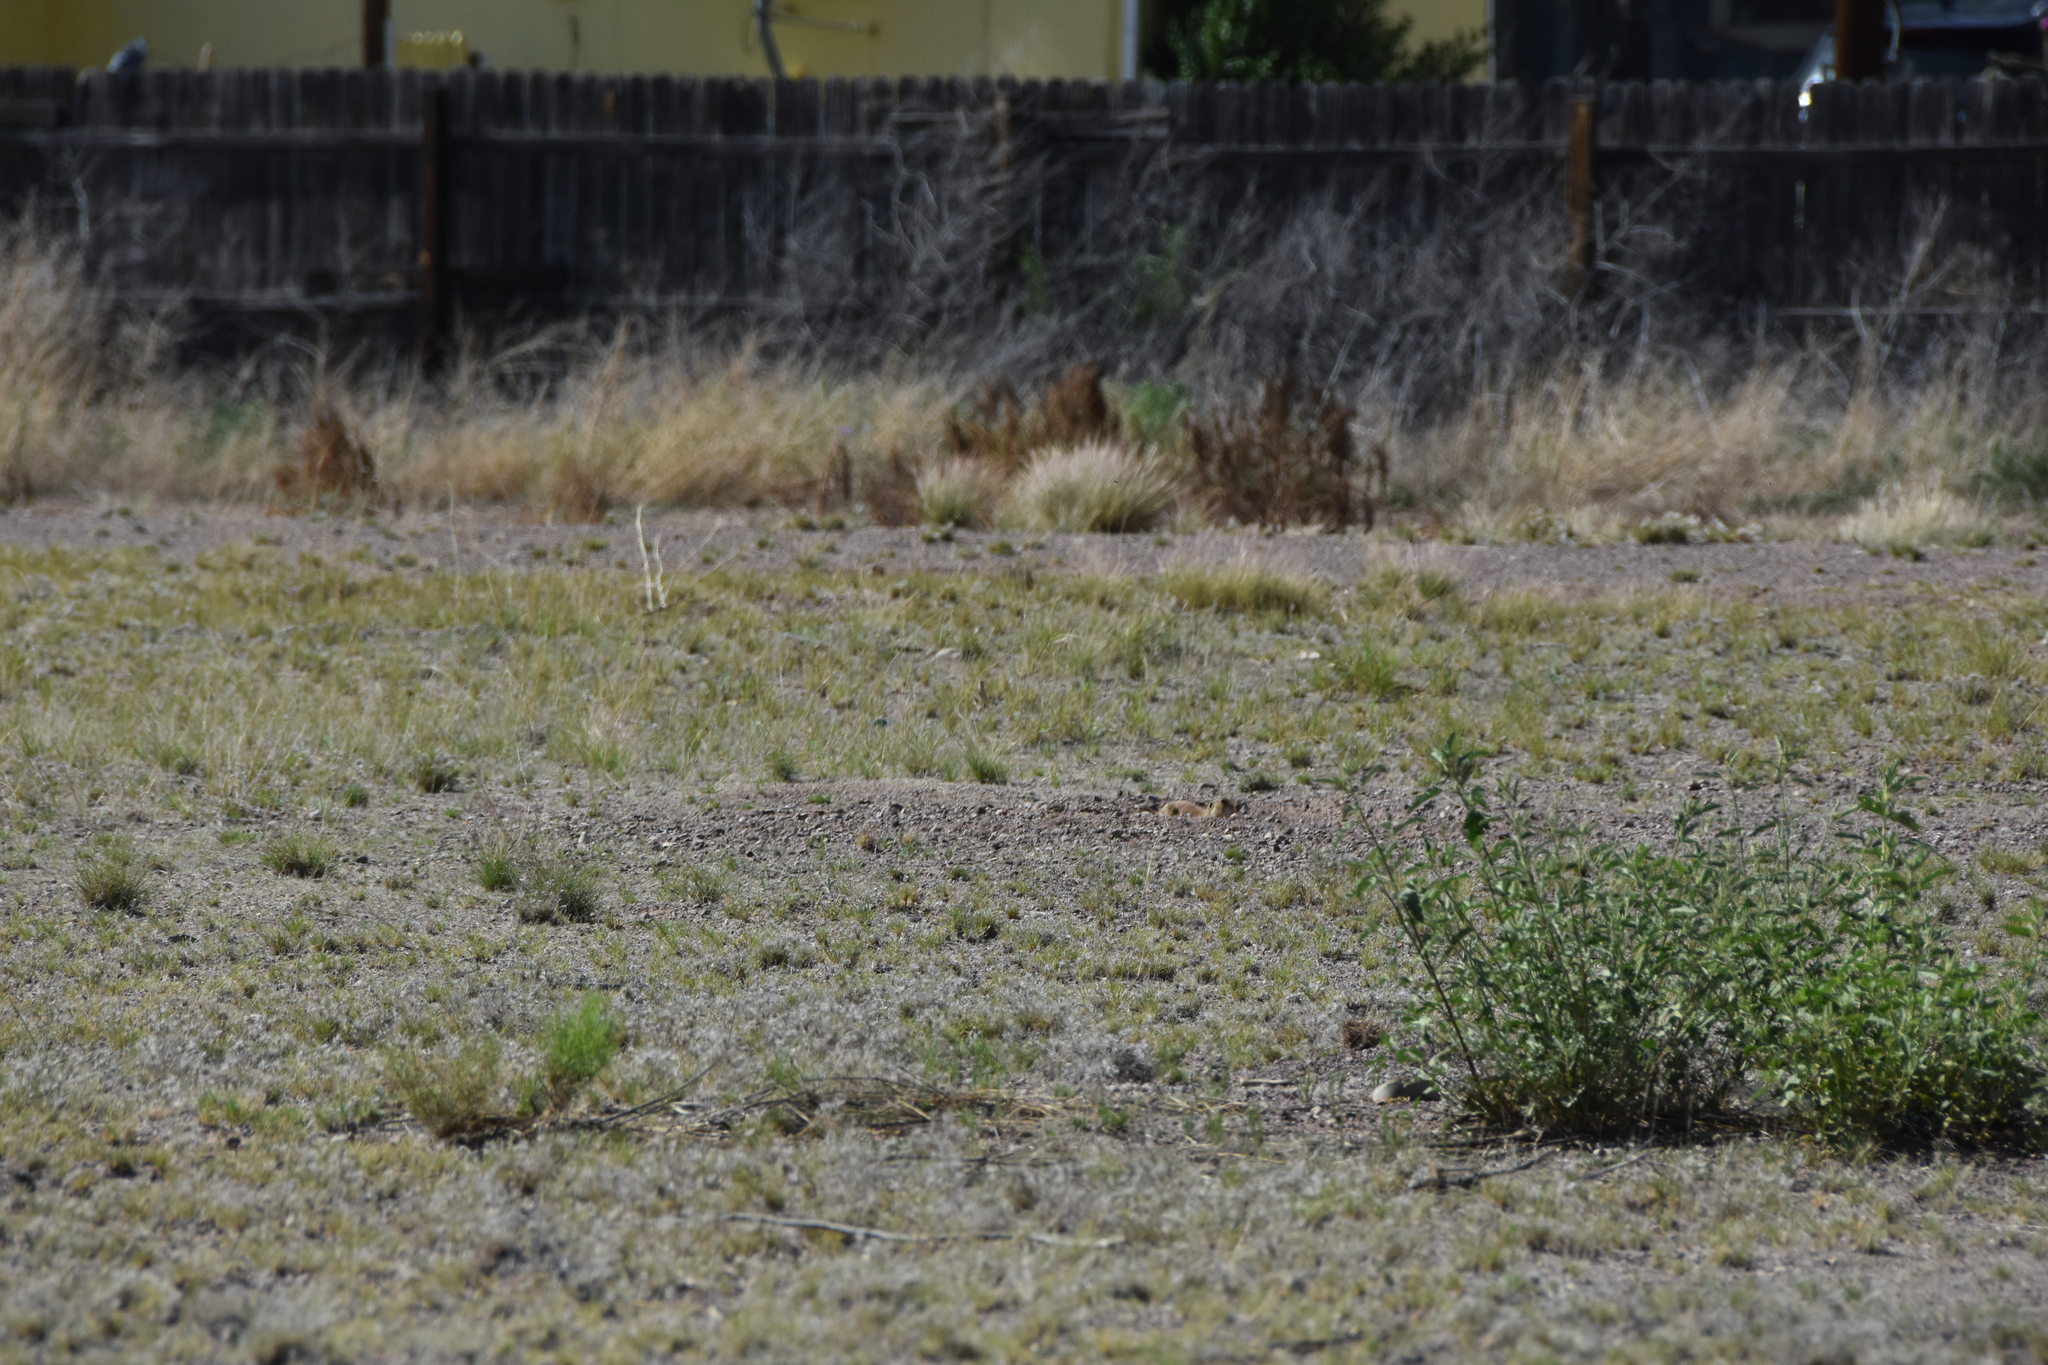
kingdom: Animalia
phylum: Chordata
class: Mammalia
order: Rodentia
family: Sciuridae
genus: Cynomys
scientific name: Cynomys gunnisoni
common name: Gunnison's prairie dog
